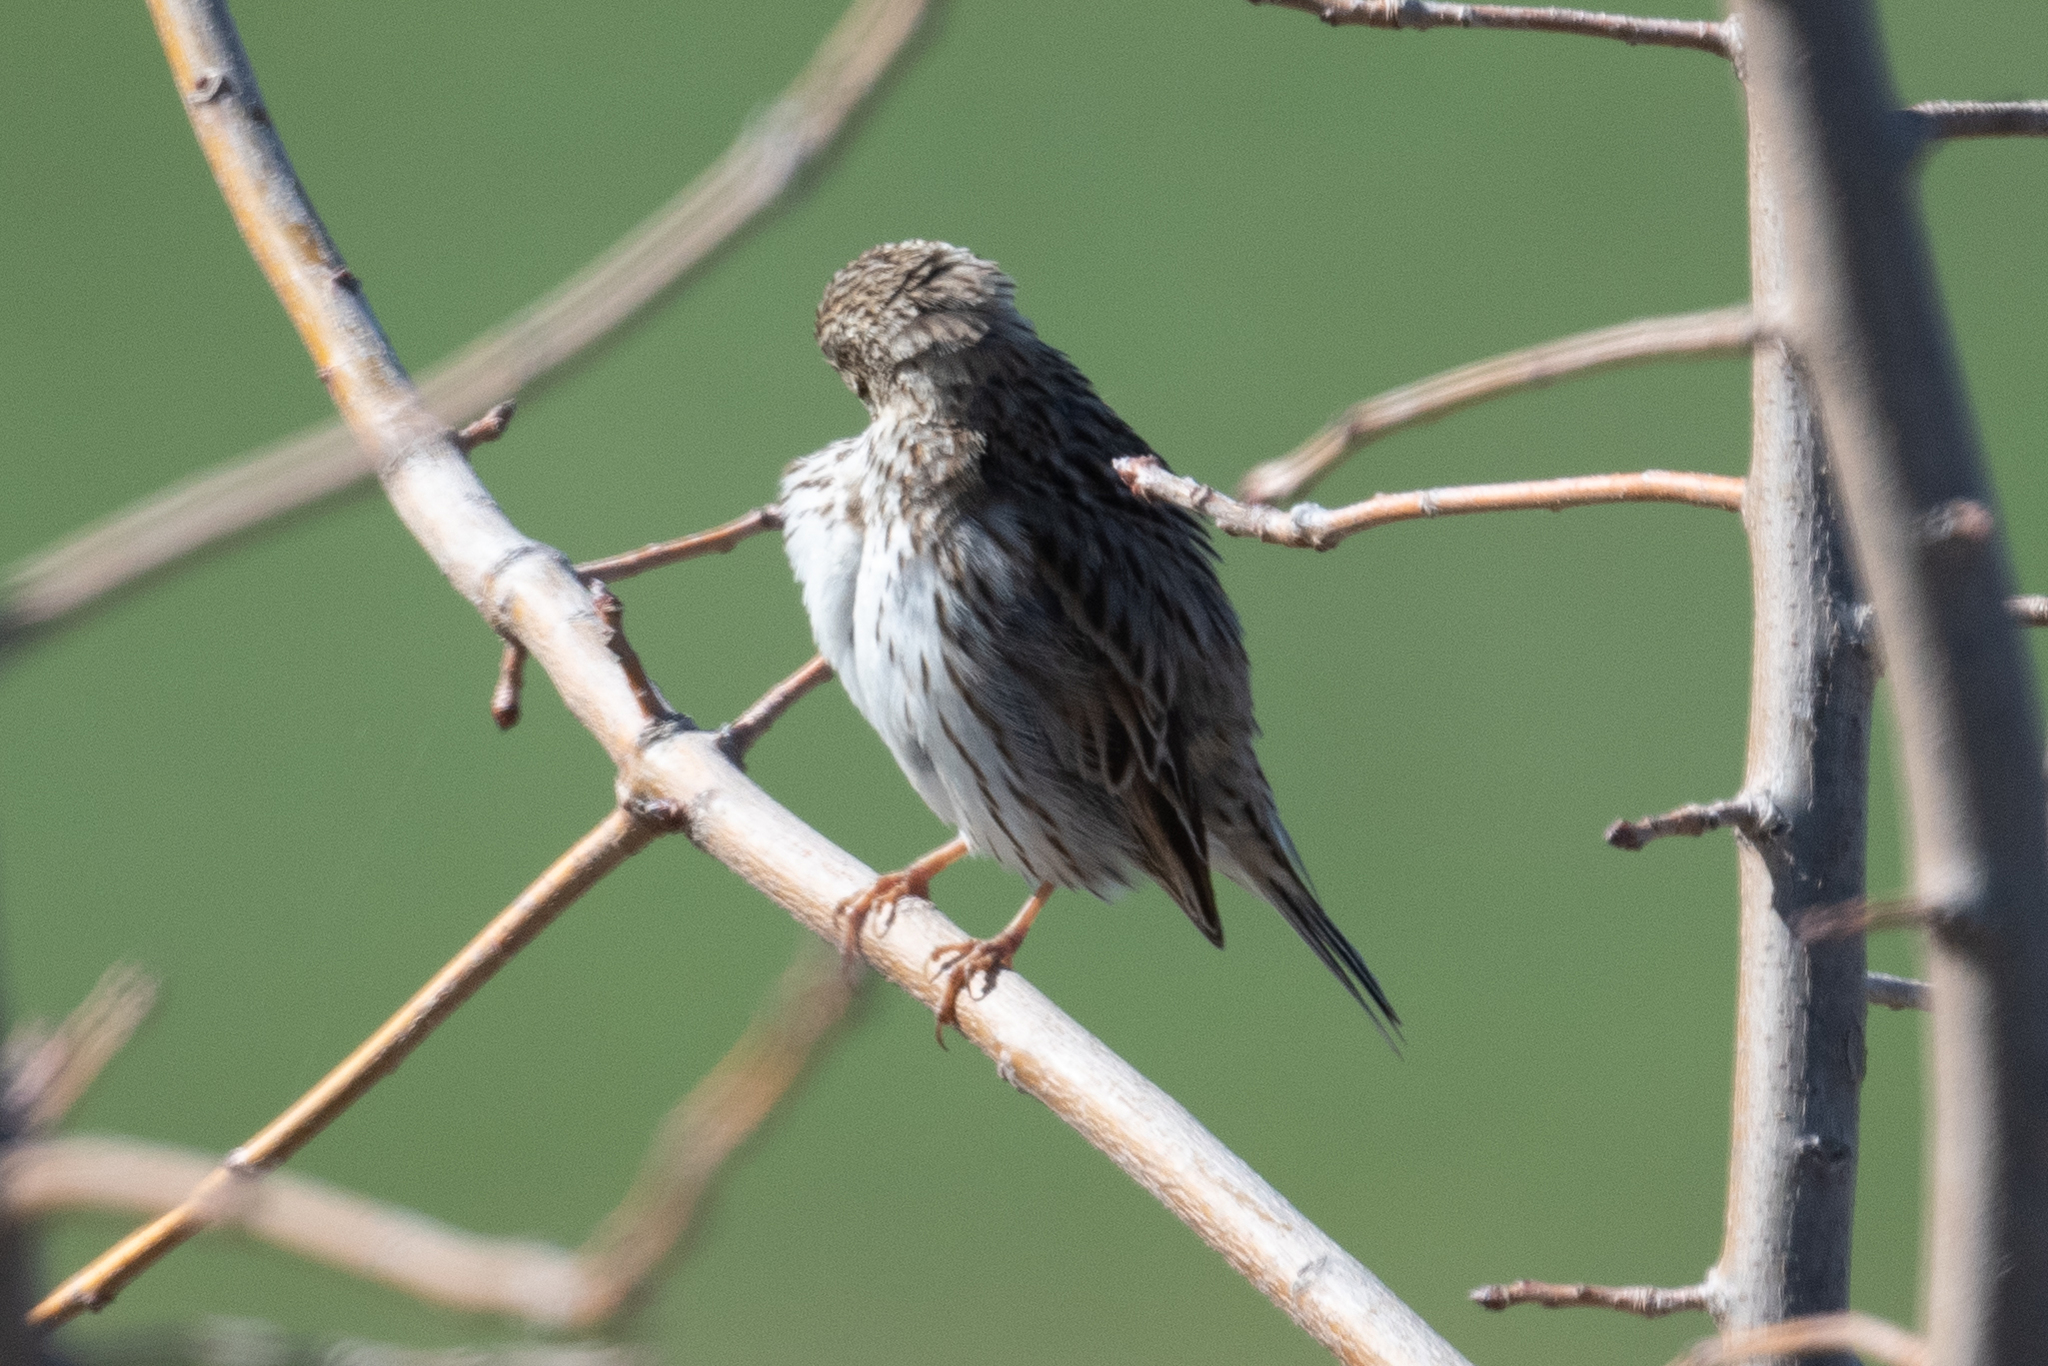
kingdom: Animalia
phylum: Chordata
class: Aves
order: Passeriformes
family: Passerellidae
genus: Passerculus
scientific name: Passerculus sandwichensis
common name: Savannah sparrow
